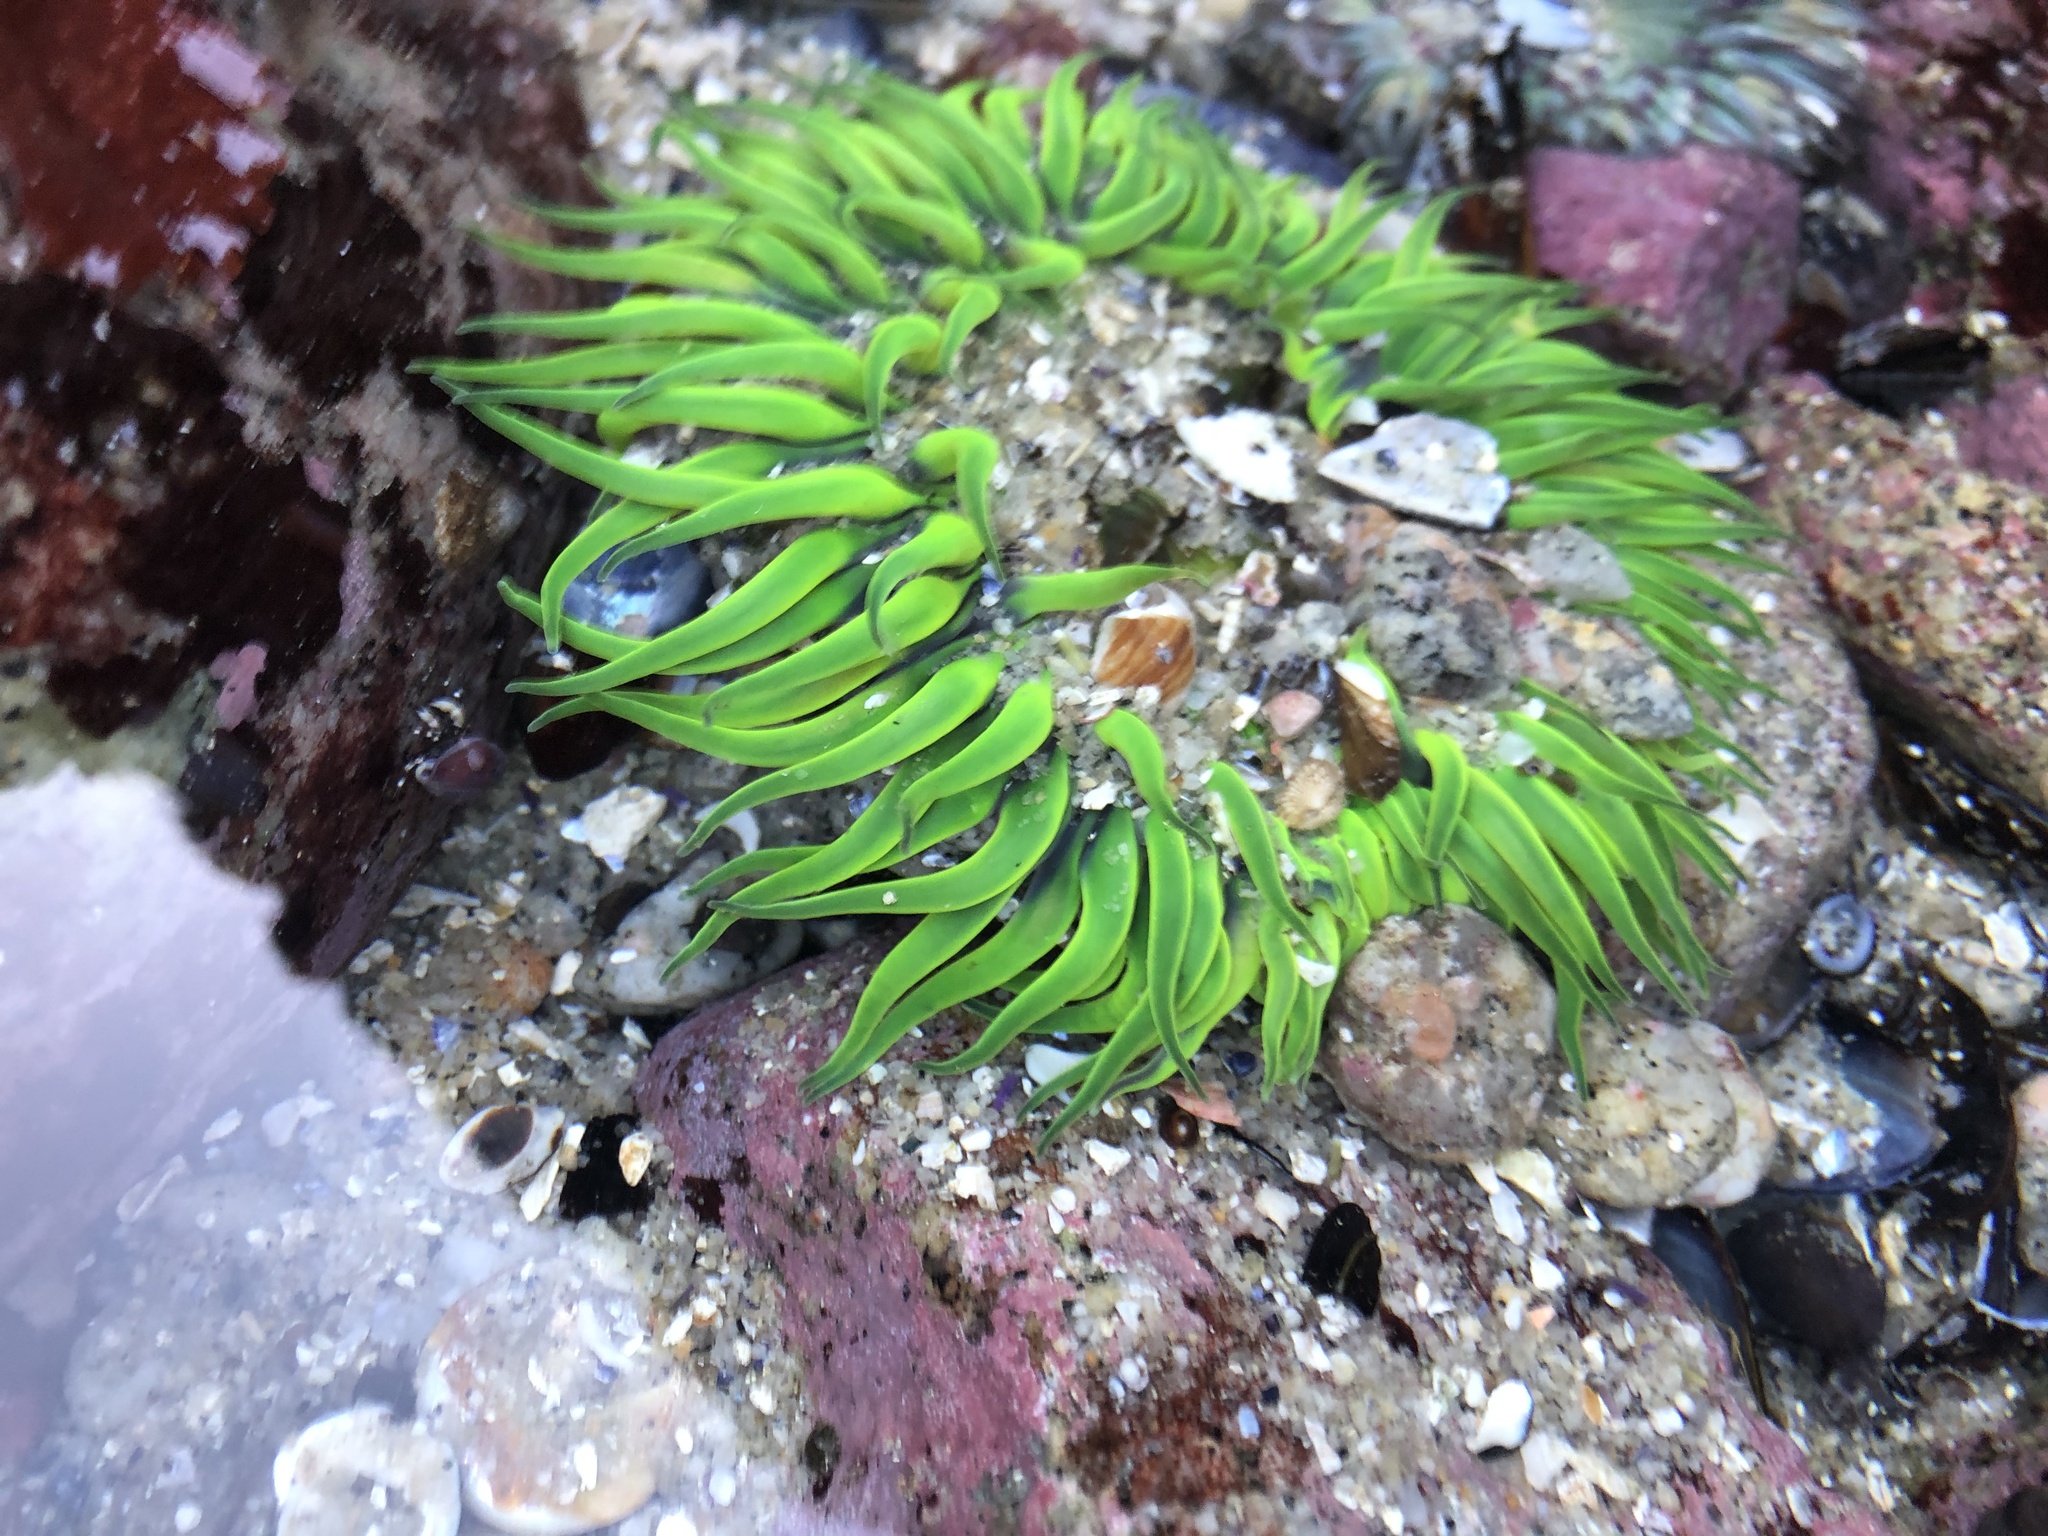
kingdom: Animalia
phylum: Cnidaria
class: Anthozoa
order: Actiniaria
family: Actiniidae
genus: Anthopleura
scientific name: Anthopleura sola
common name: Sun anemone
